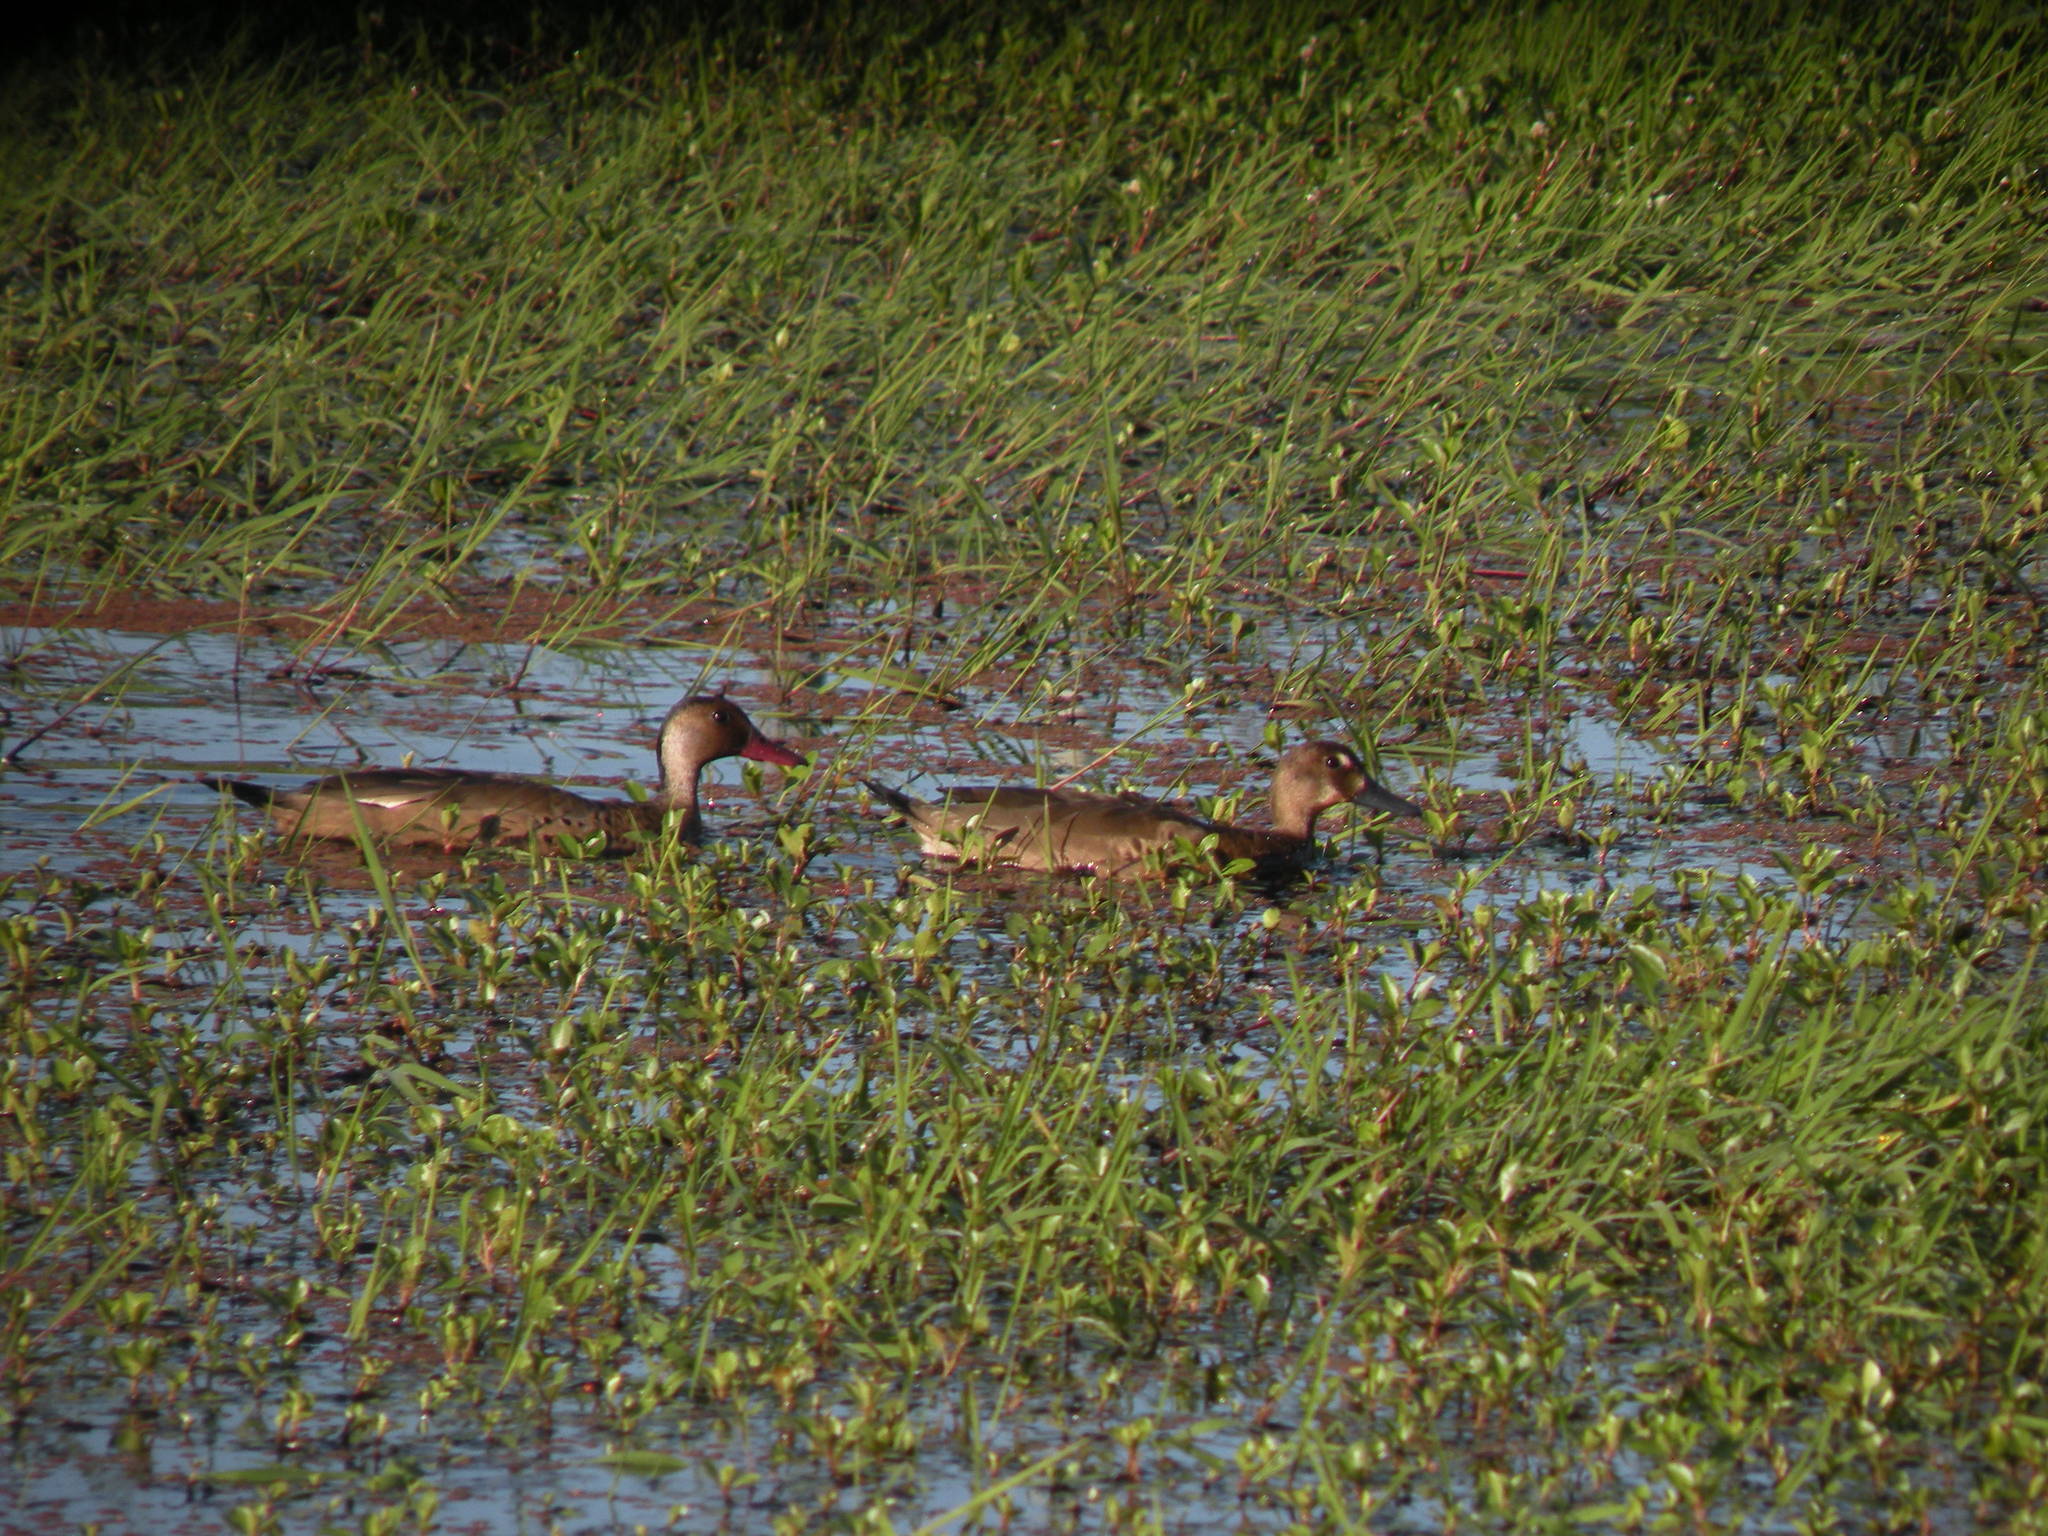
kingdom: Animalia
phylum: Chordata
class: Aves
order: Anseriformes
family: Anatidae
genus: Amazonetta
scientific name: Amazonetta brasiliensis
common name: Brazilian teal
